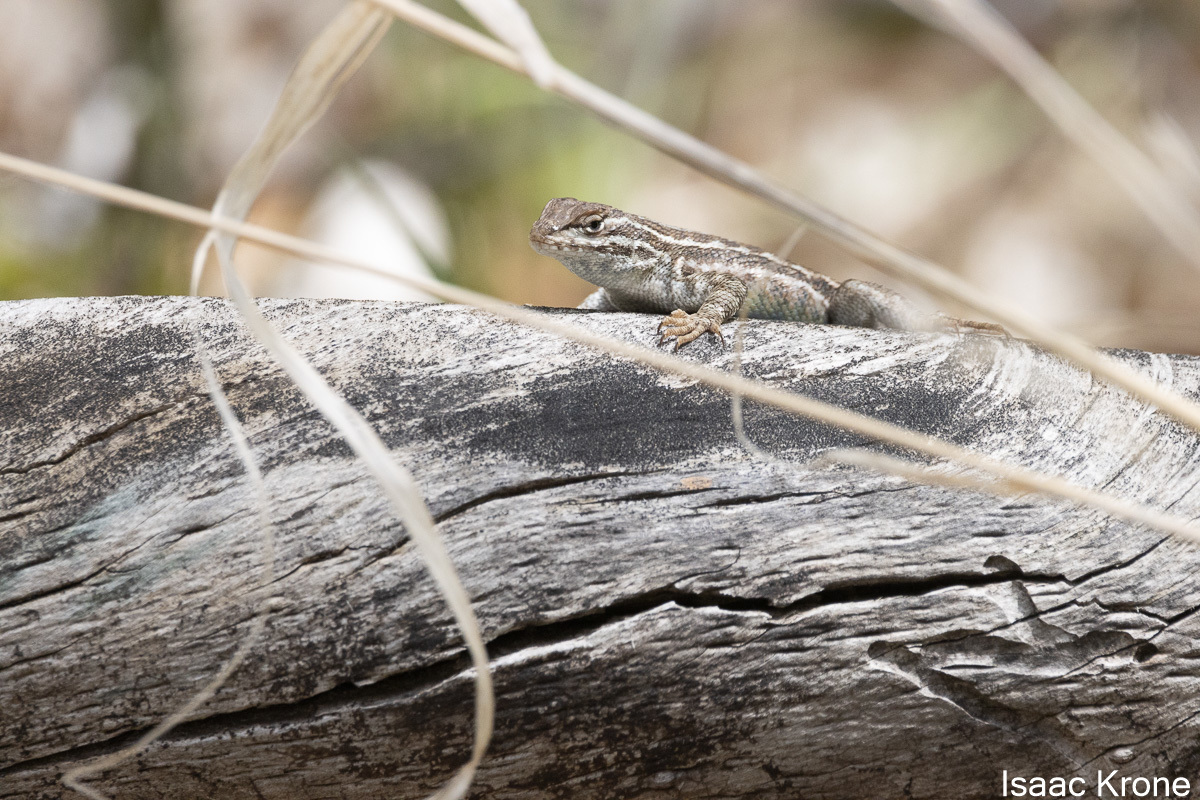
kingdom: Animalia
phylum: Chordata
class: Squamata
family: Phrynosomatidae
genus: Sceloporus
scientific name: Sceloporus graciosus
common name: Sagebrush lizard
